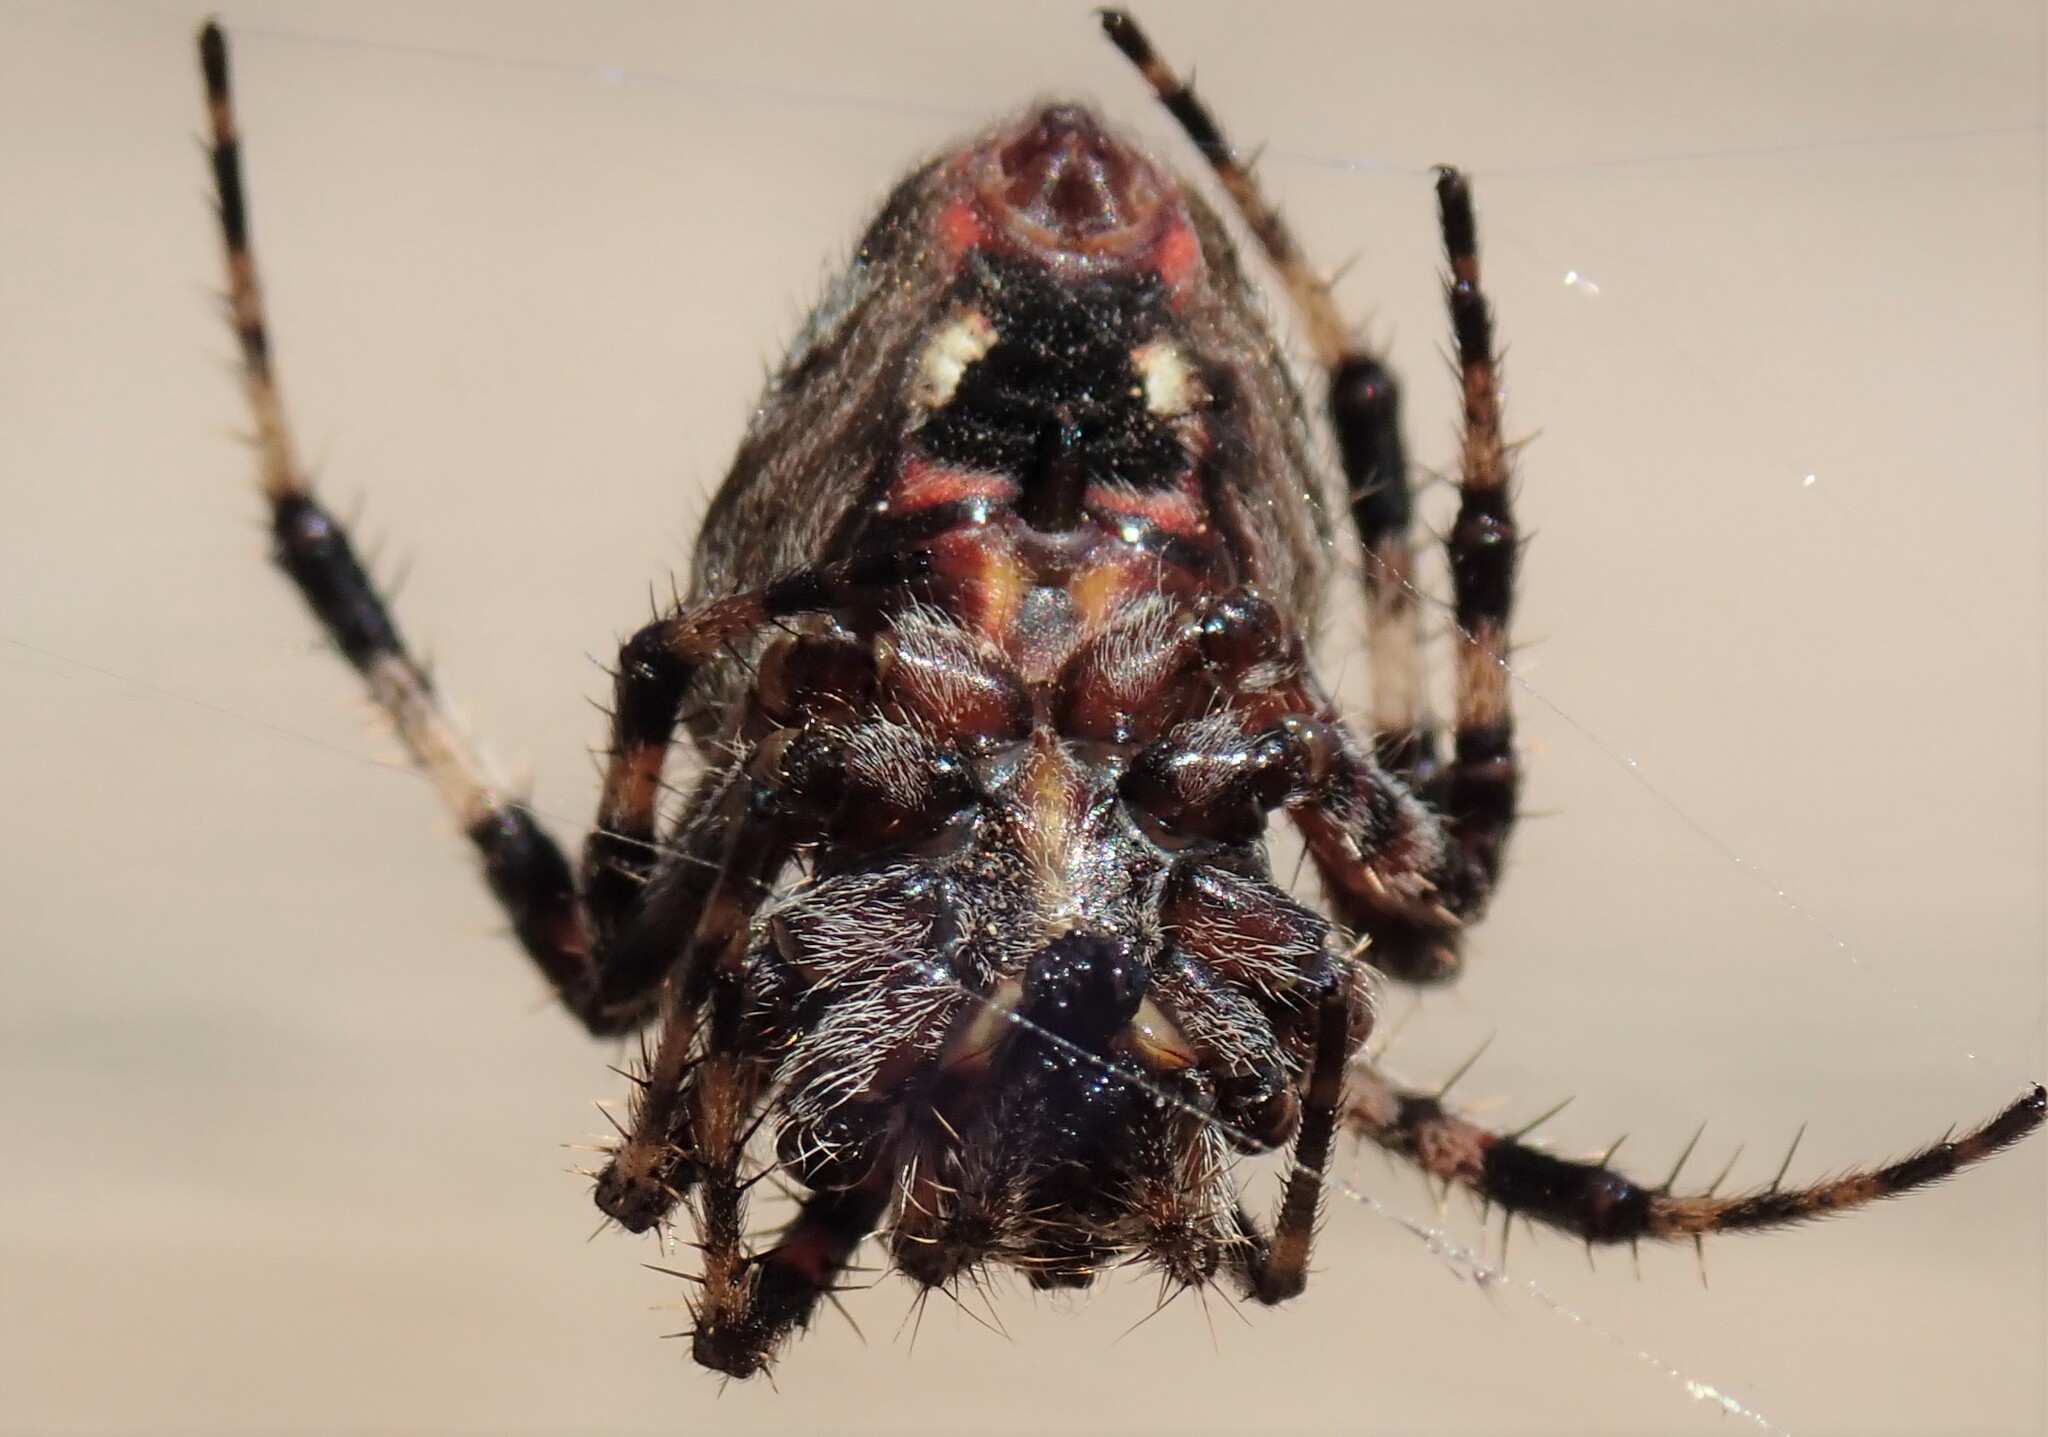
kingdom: Animalia
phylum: Arthropoda
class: Arachnida
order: Araneae
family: Araneidae
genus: Neoscona
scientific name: Neoscona crucifera
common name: Spotted orbweaver
